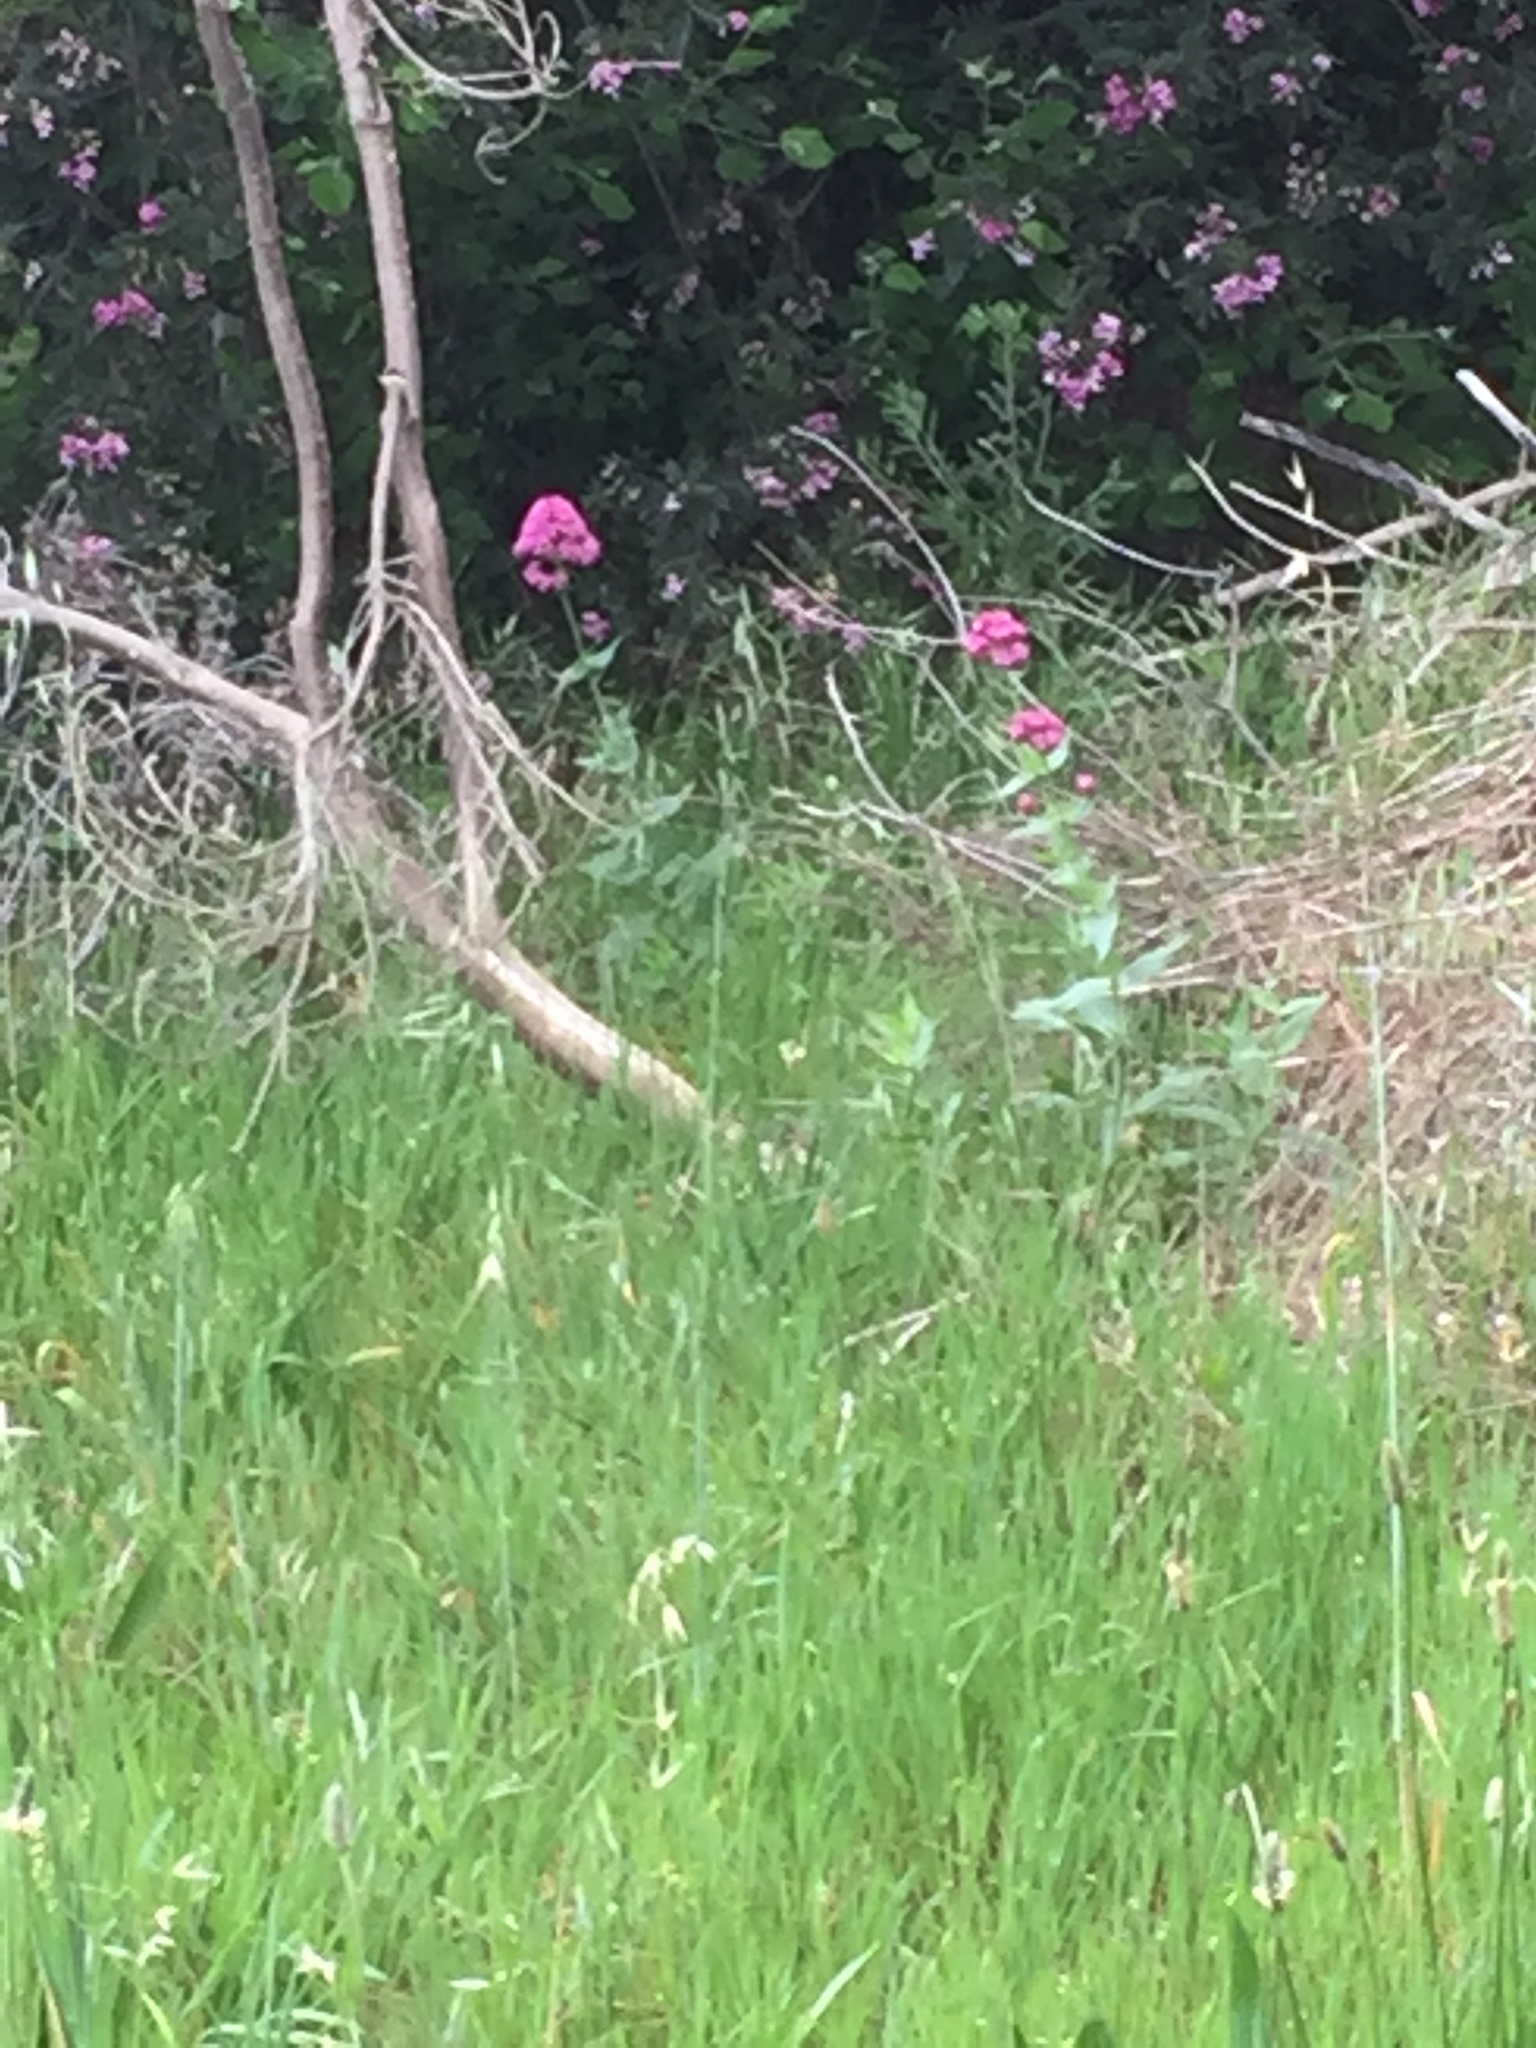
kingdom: Plantae
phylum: Tracheophyta
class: Magnoliopsida
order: Dipsacales
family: Caprifoliaceae
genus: Centranthus
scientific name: Centranthus ruber
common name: Red valerian
